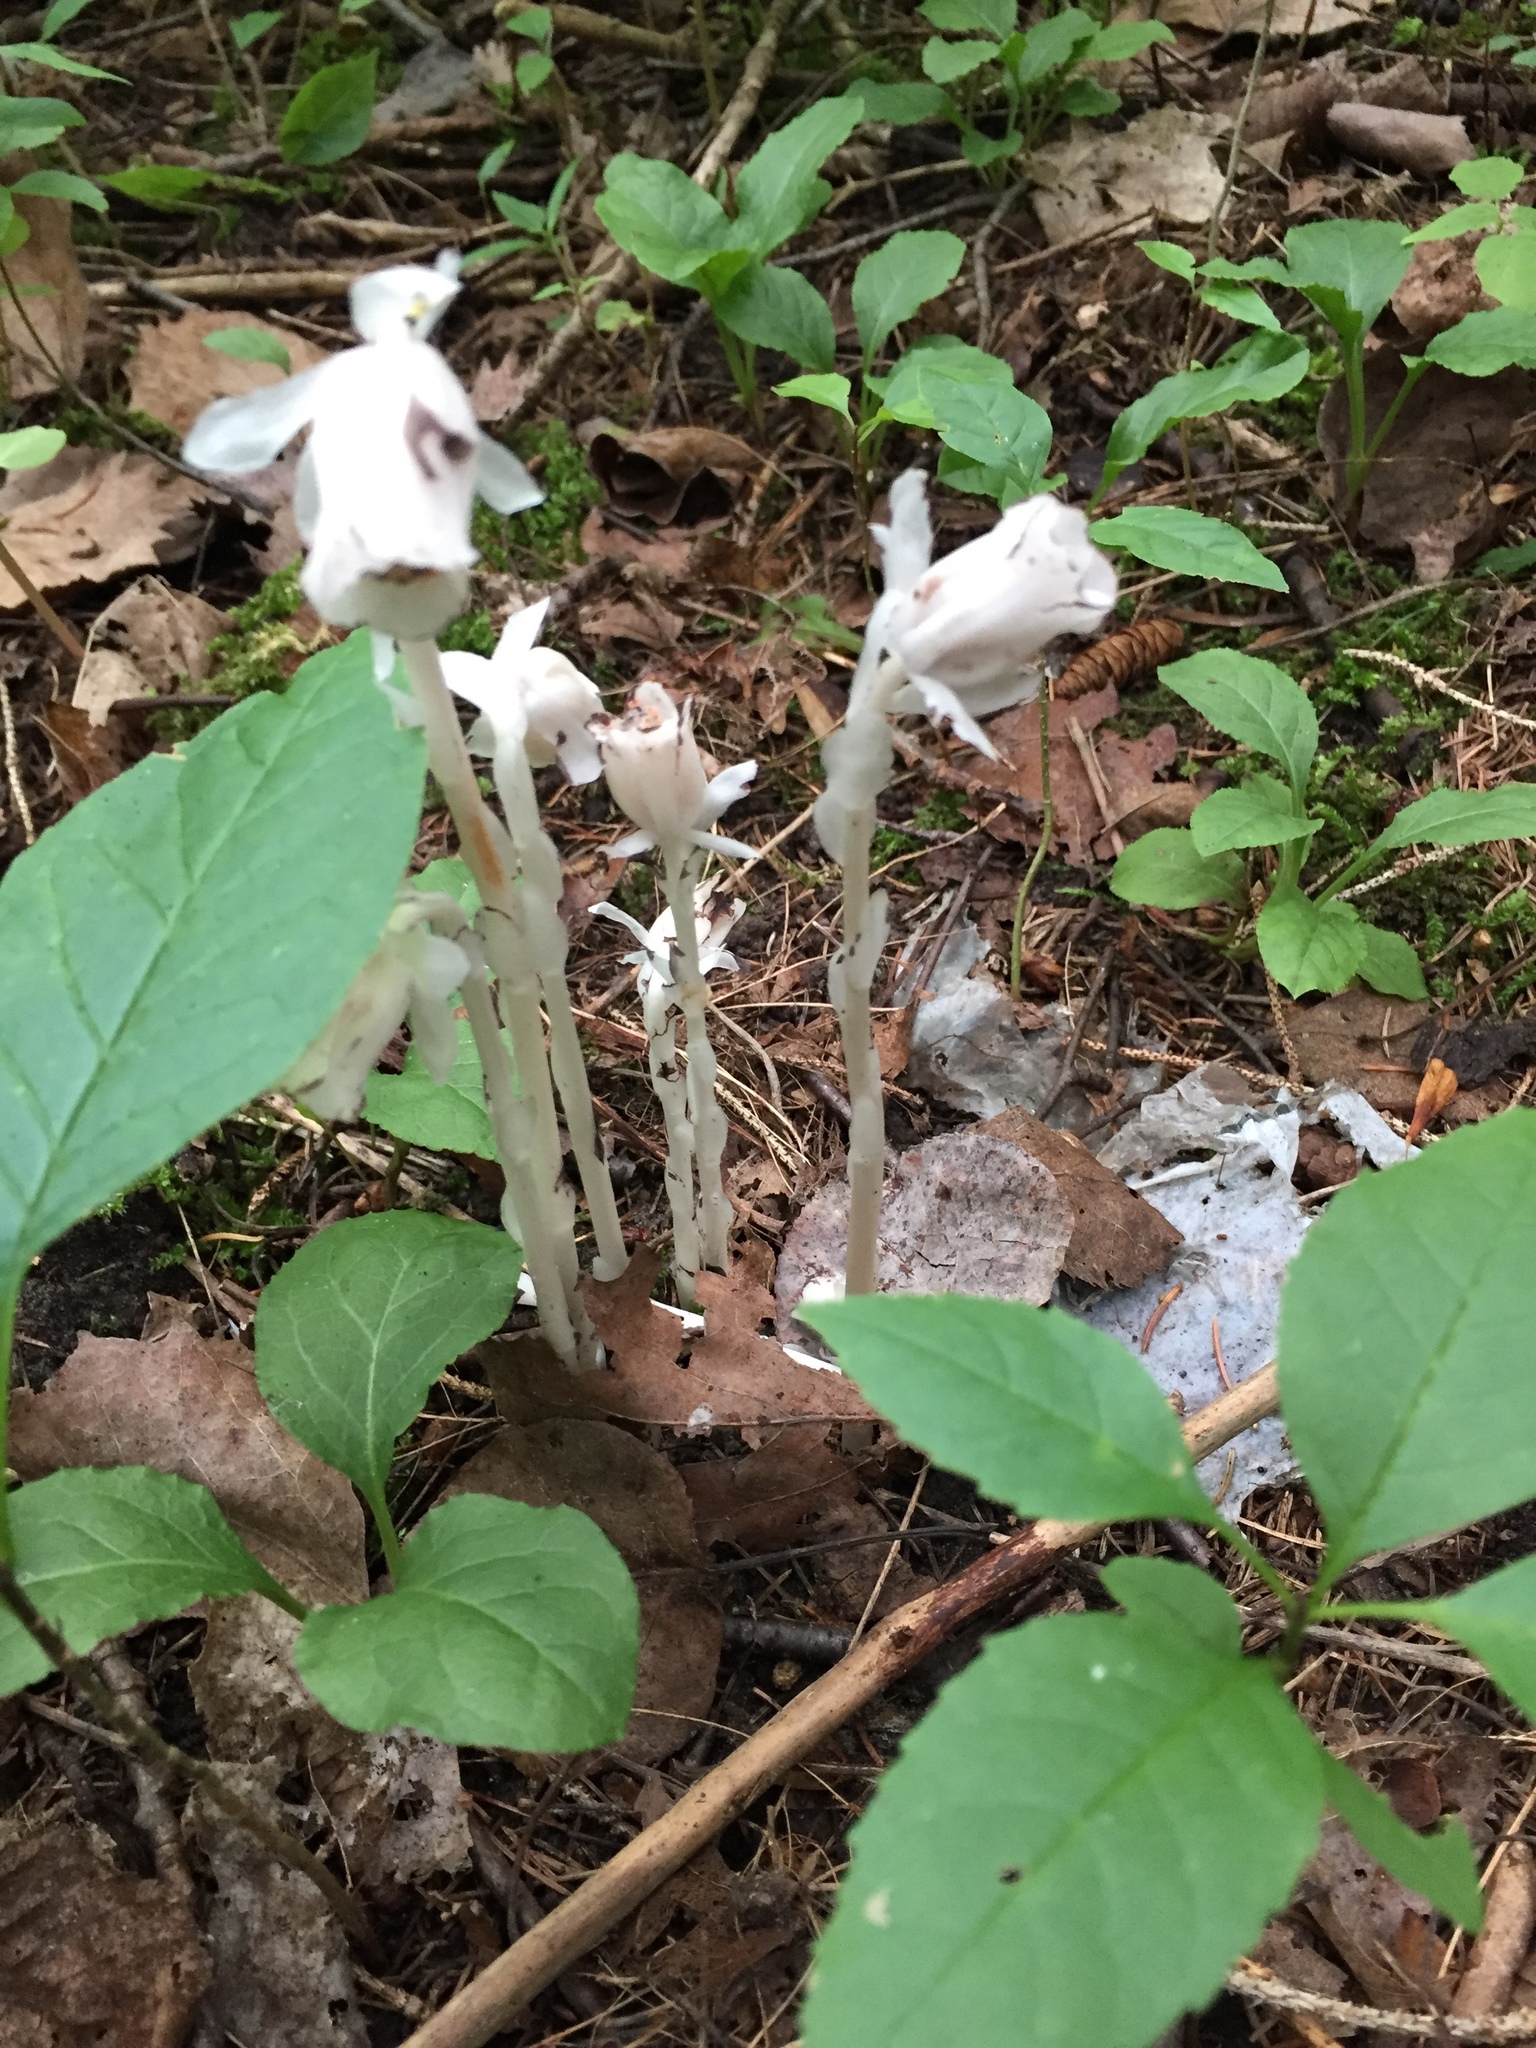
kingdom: Plantae
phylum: Tracheophyta
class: Magnoliopsida
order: Ericales
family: Ericaceae
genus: Monotropa
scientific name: Monotropa uniflora
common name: Convulsion root
